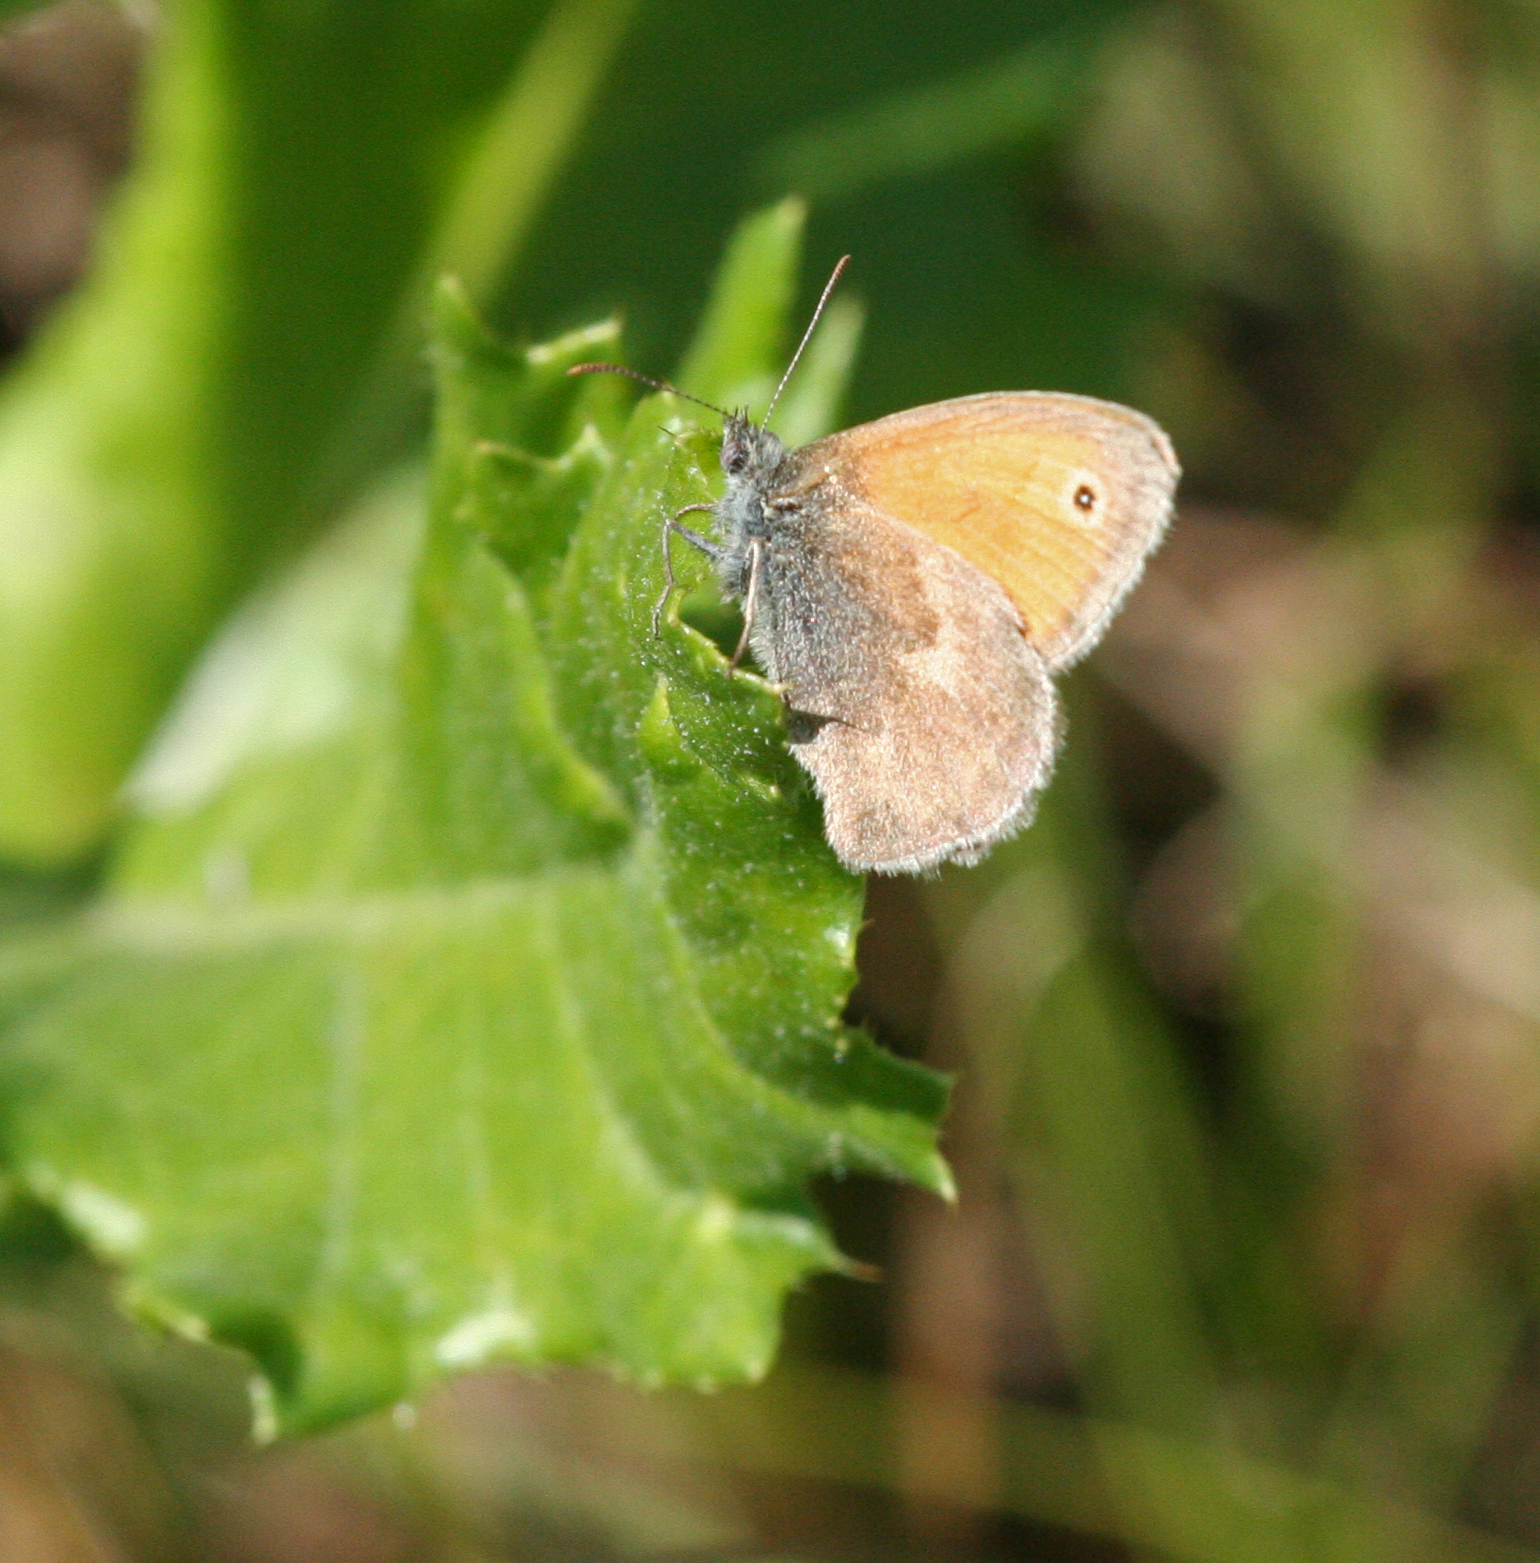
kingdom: Animalia
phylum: Arthropoda
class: Insecta
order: Lepidoptera
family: Nymphalidae
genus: Coenonympha
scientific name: Coenonympha pamphilus
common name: Small heath
